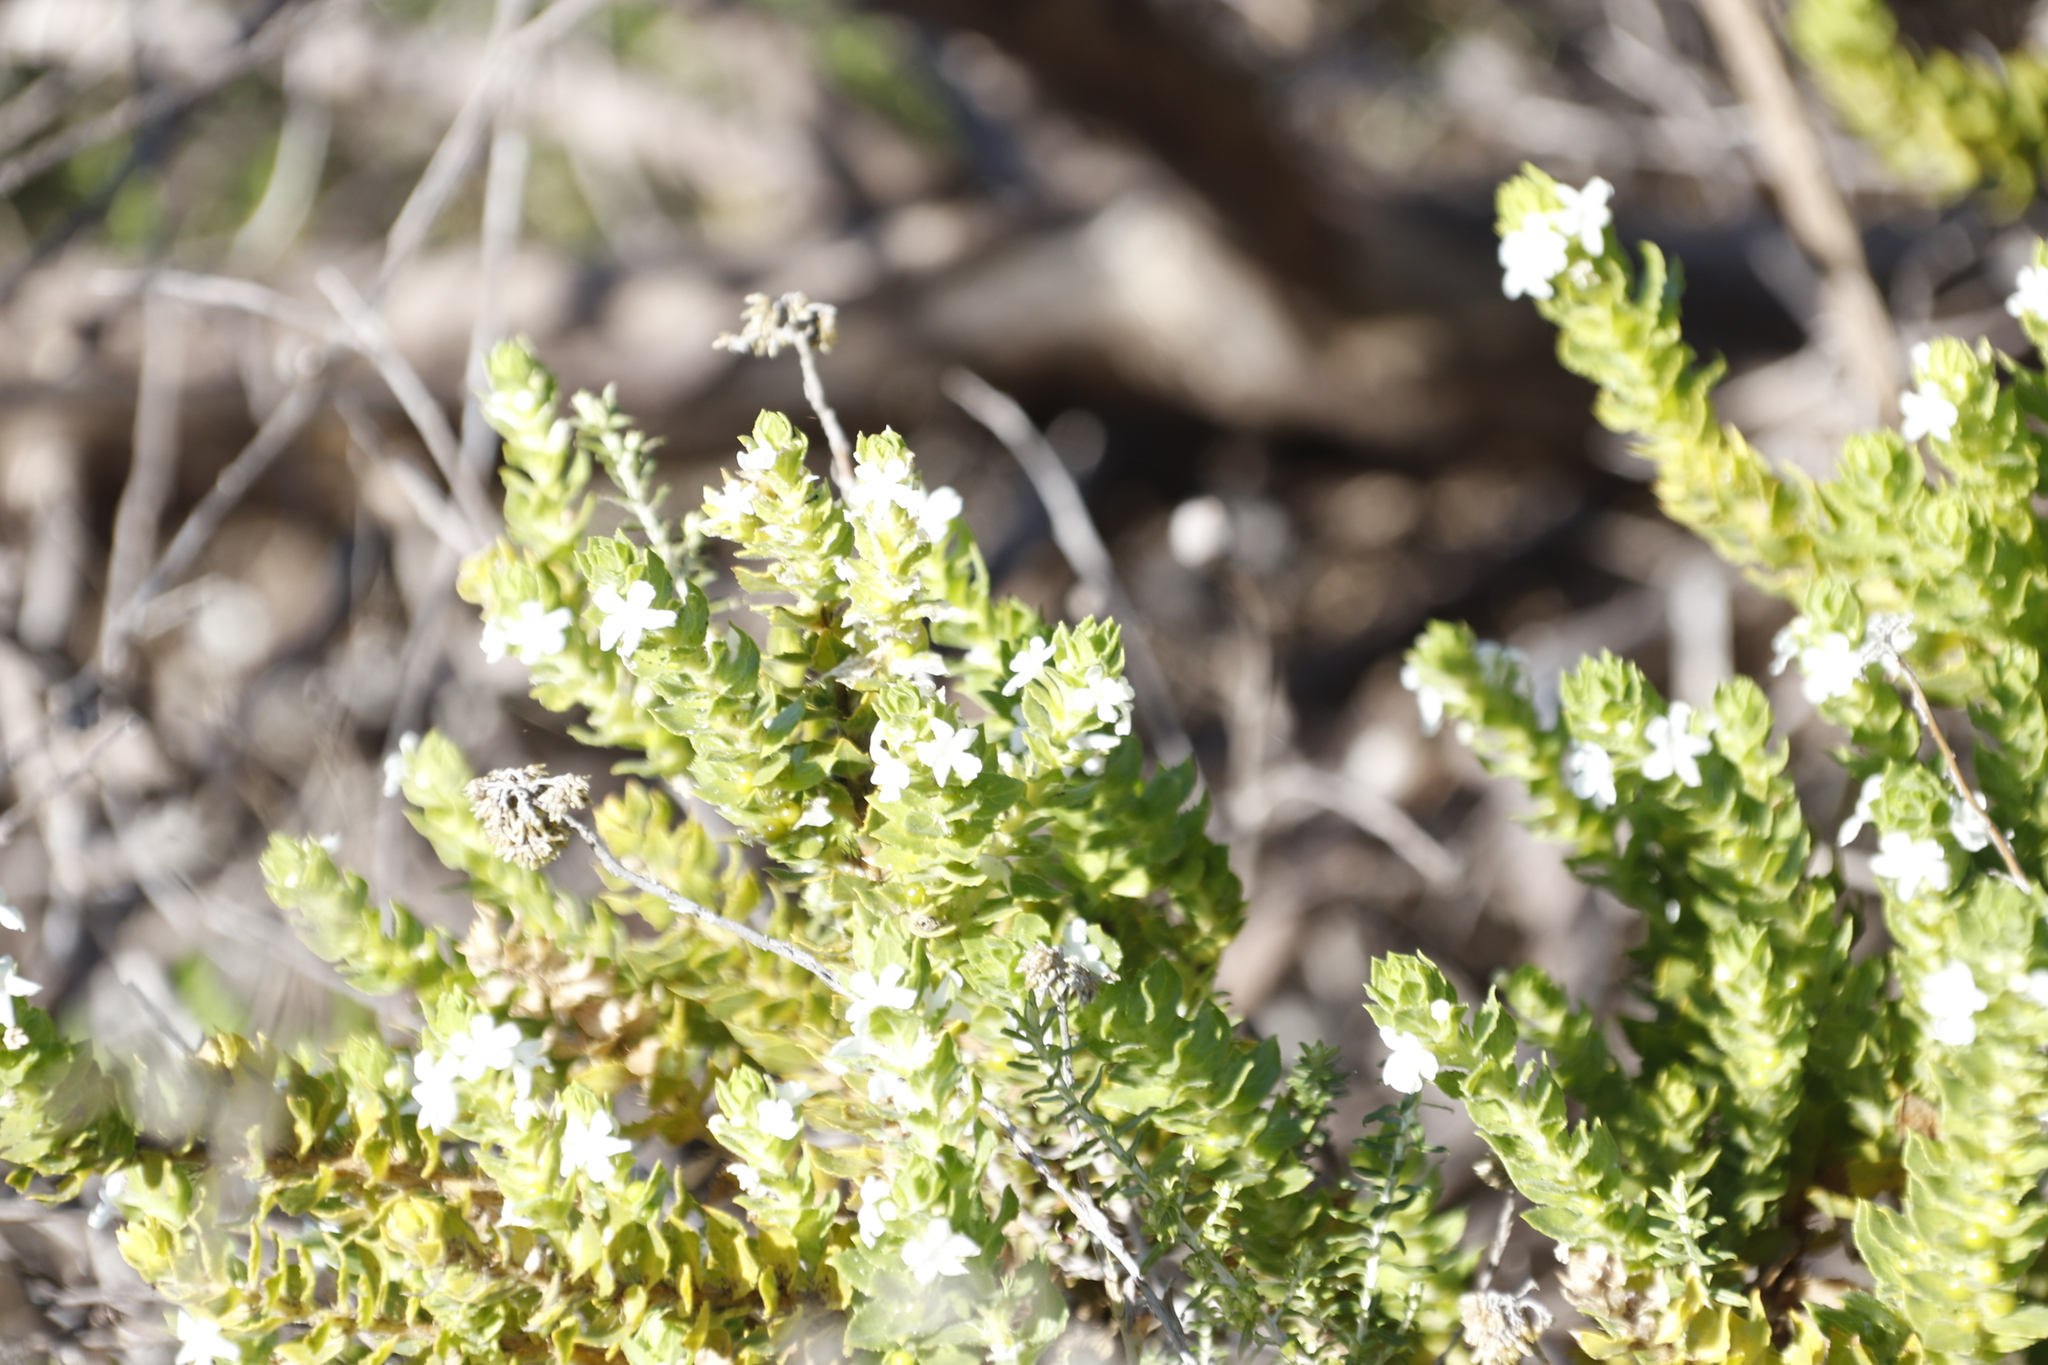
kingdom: Plantae
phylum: Tracheophyta
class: Magnoliopsida
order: Lamiales
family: Scrophulariaceae
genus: Oftia
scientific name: Oftia africana
